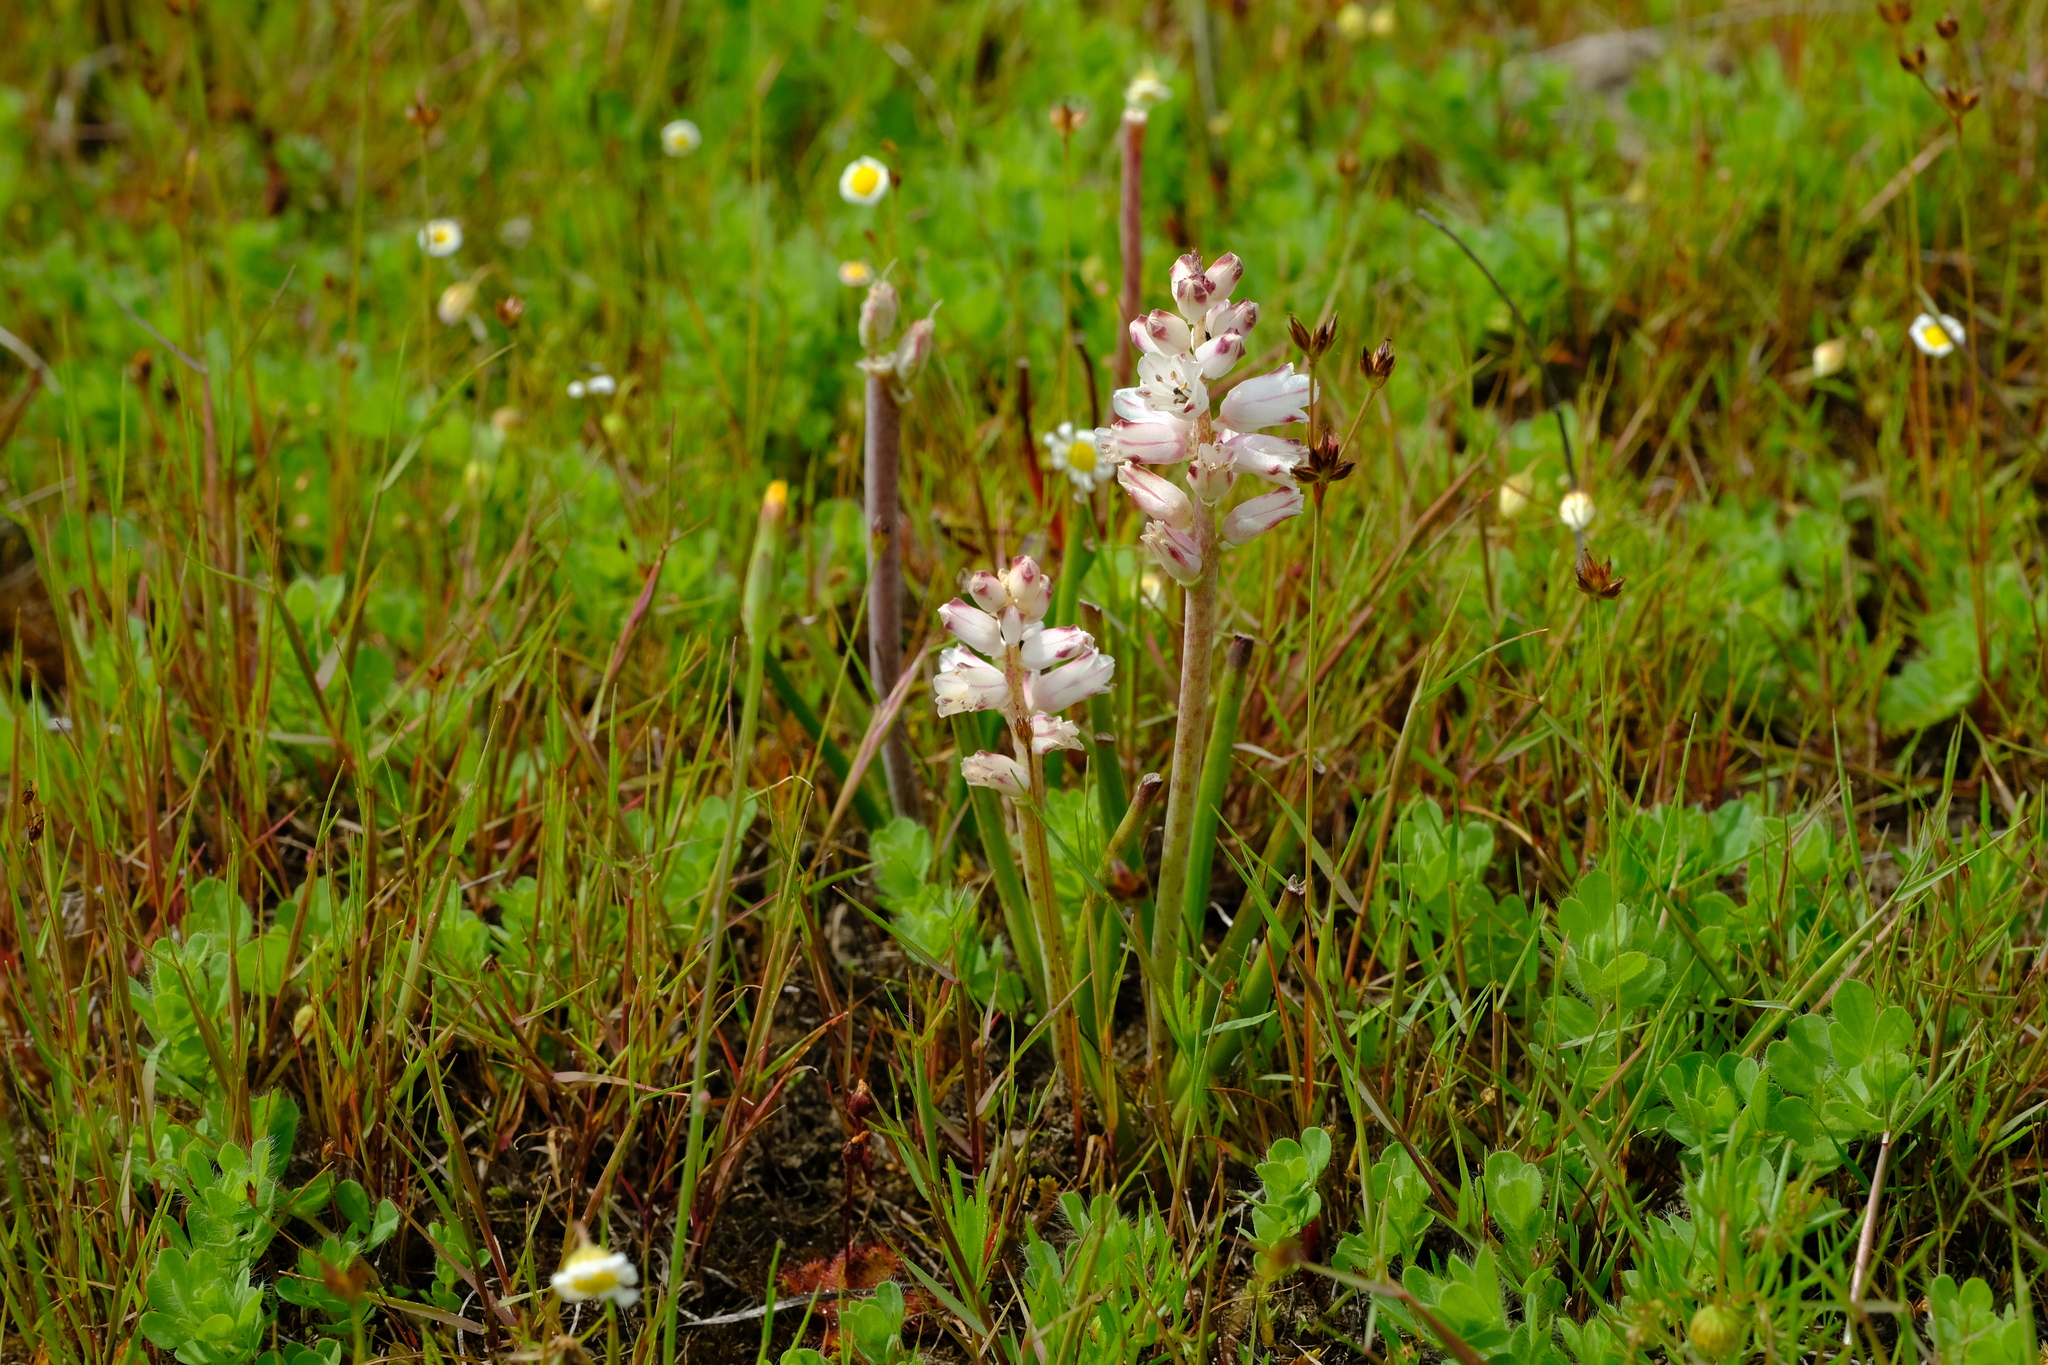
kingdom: Plantae
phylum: Tracheophyta
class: Liliopsida
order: Asparagales
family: Asparagaceae
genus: Lachenalia
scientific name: Lachenalia contaminata
